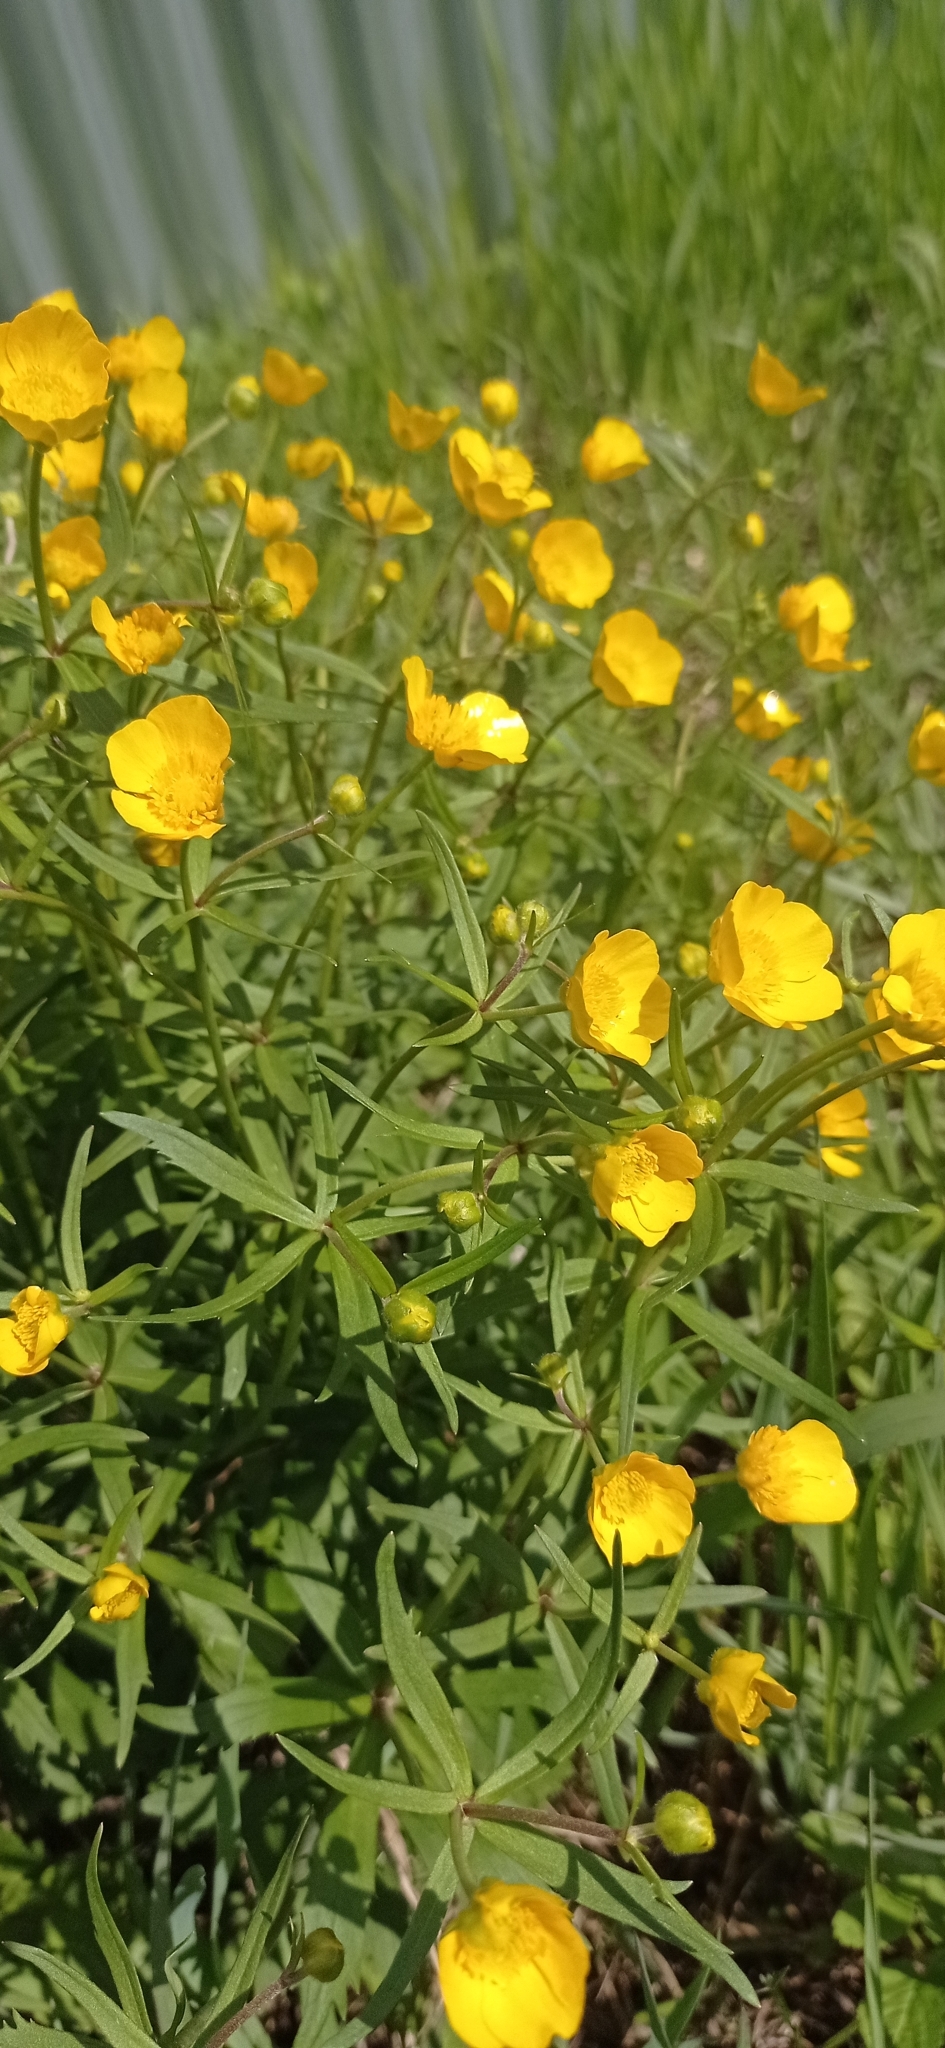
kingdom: Plantae
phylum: Tracheophyta
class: Magnoliopsida
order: Ranunculales
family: Ranunculaceae
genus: Ranunculus
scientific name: Ranunculus cassubicus
